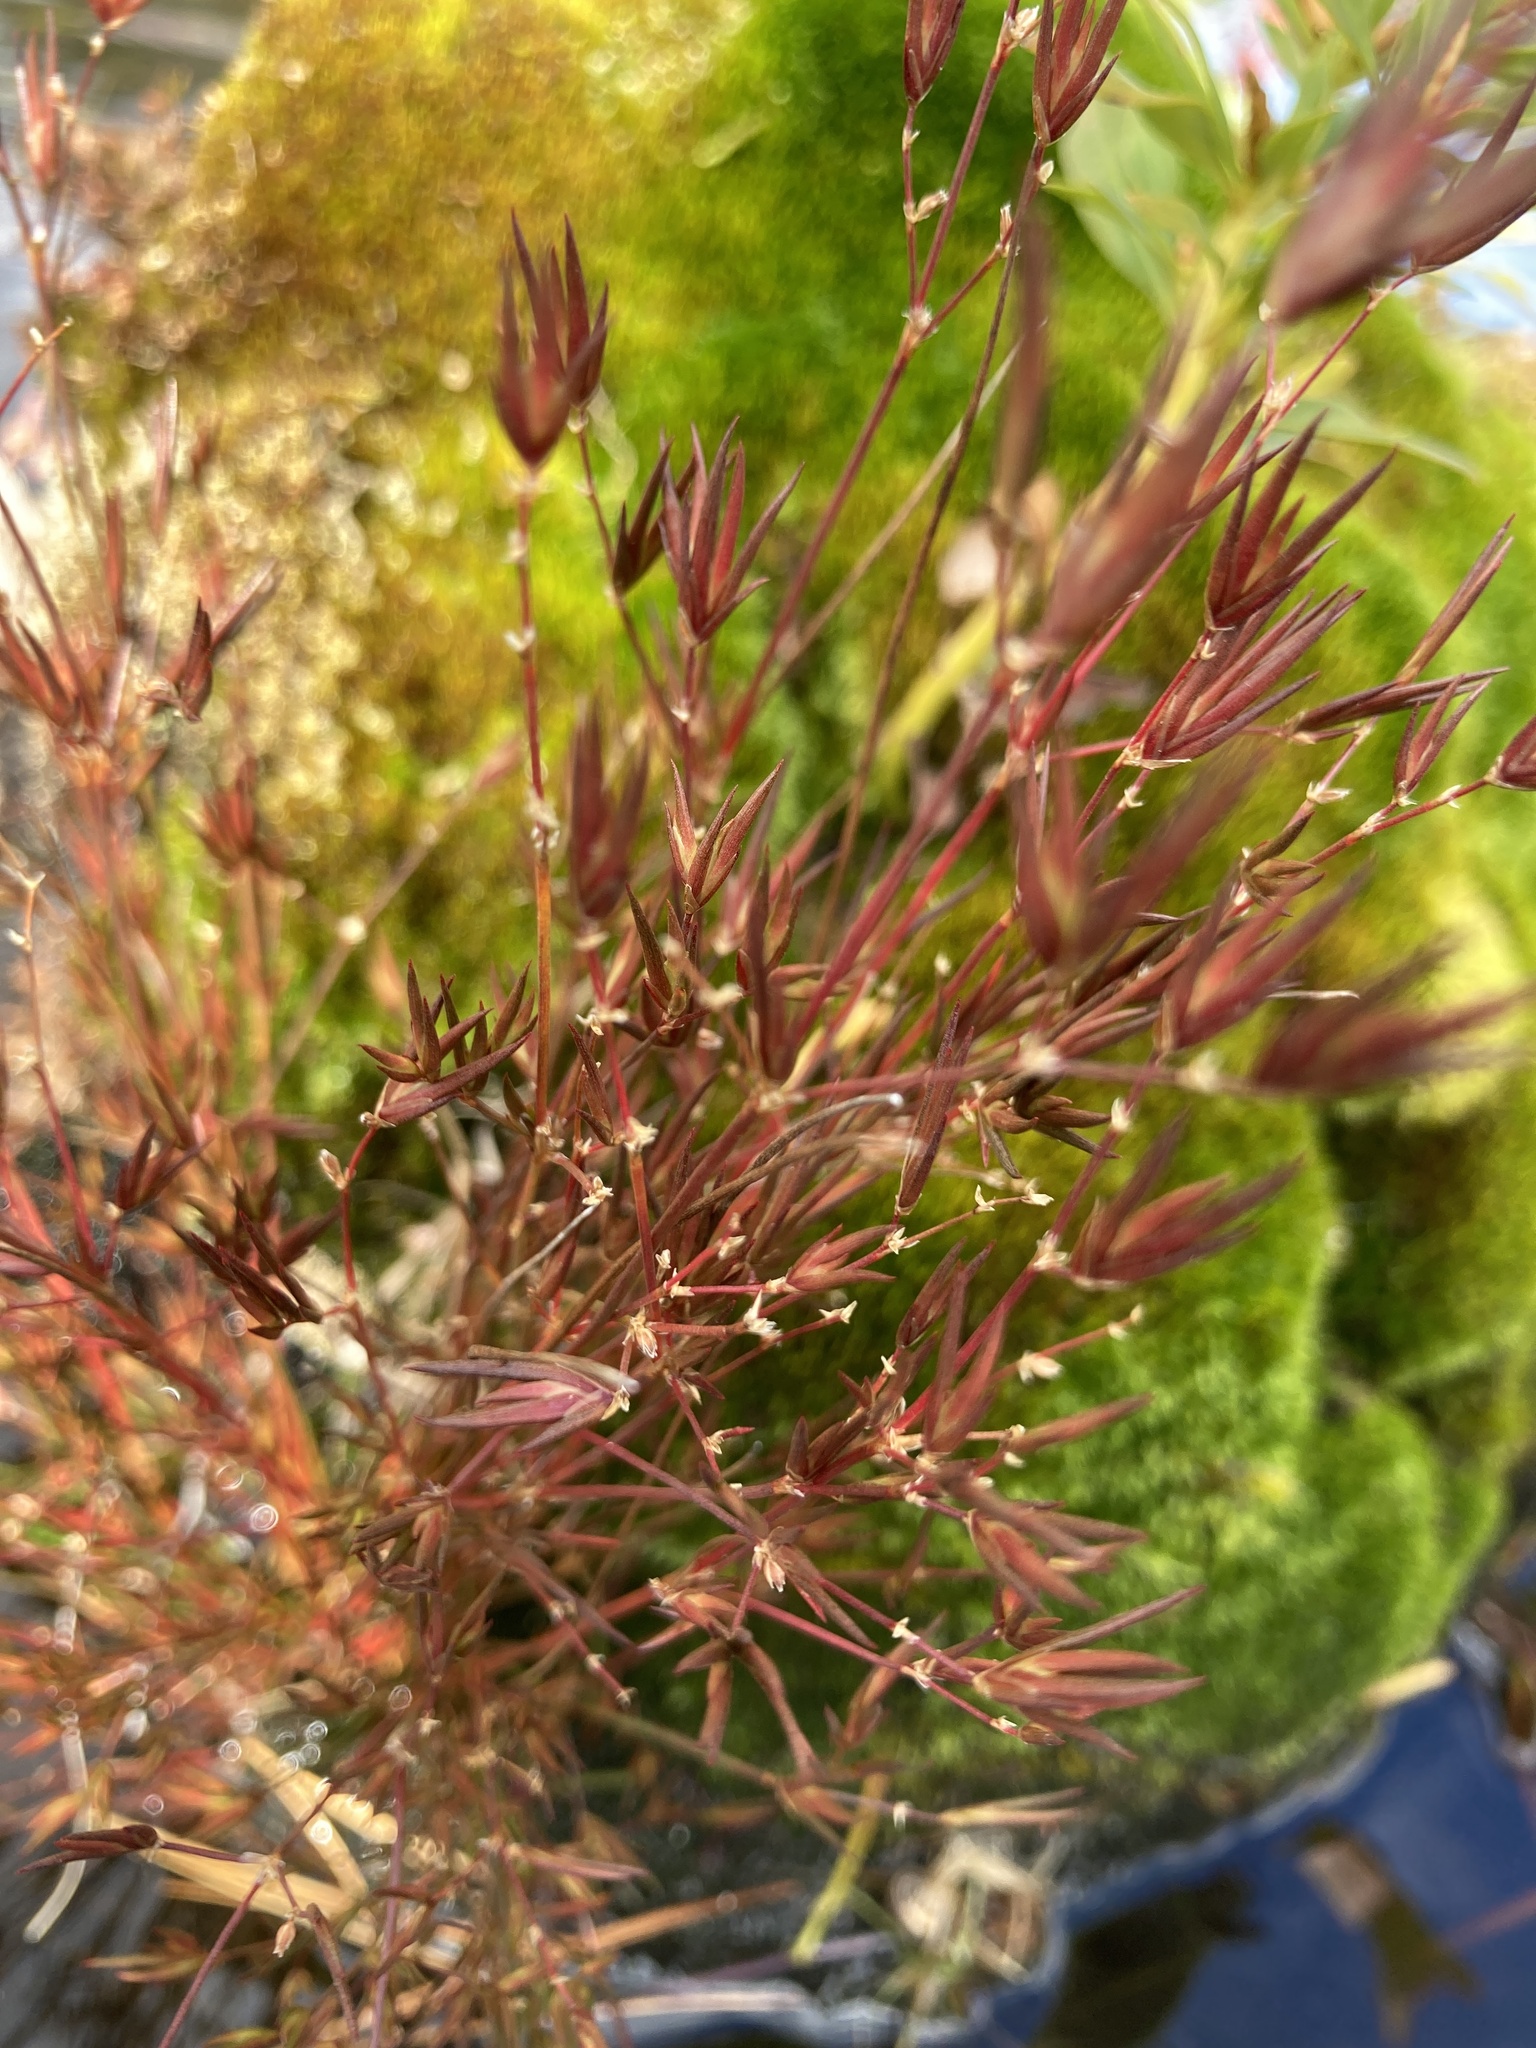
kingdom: Plantae
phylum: Tracheophyta
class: Liliopsida
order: Poales
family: Juncaceae
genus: Juncus
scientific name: Juncus pelocarpus
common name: Brown-fruited rush
